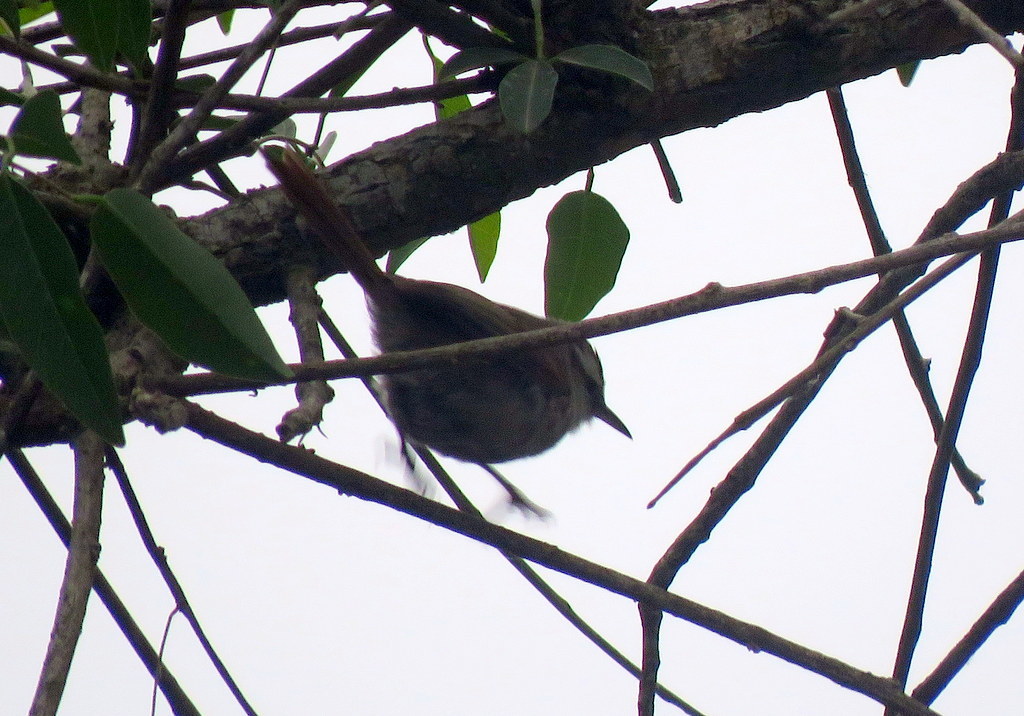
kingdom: Animalia
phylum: Chordata
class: Aves
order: Passeriformes
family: Furnariidae
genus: Cranioleuca
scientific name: Cranioleuca pyrrhophia
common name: Stripe-crowned spinetail
